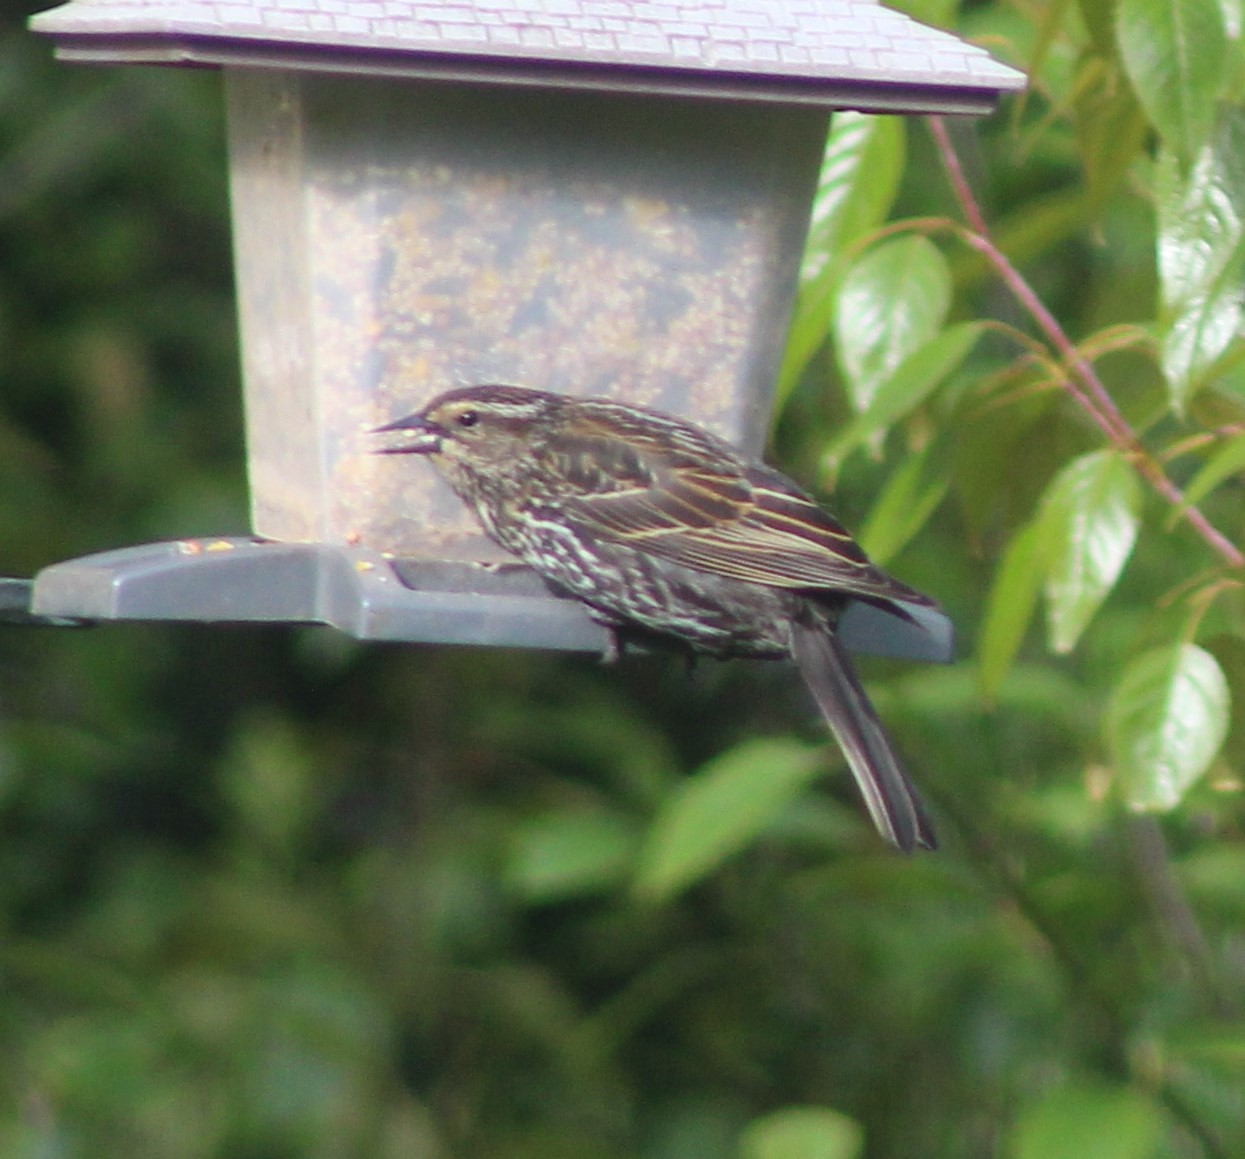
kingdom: Animalia
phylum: Chordata
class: Aves
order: Passeriformes
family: Icteridae
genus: Agelaius
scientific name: Agelaius phoeniceus
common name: Red-winged blackbird
